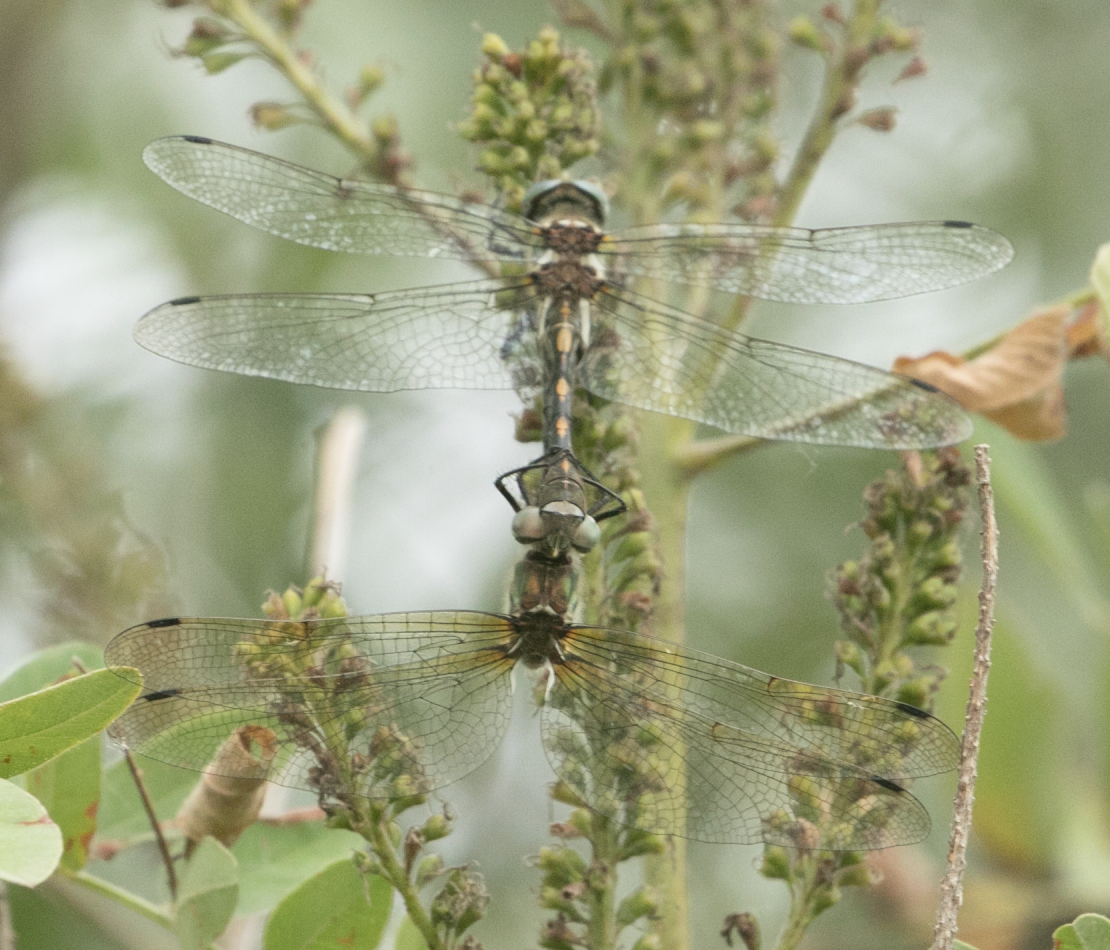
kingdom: Animalia
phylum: Arthropoda
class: Insecta
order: Odonata
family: Corduliidae
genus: Oxygastra
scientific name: Oxygastra curtisii
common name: Orange-spotted emerald
